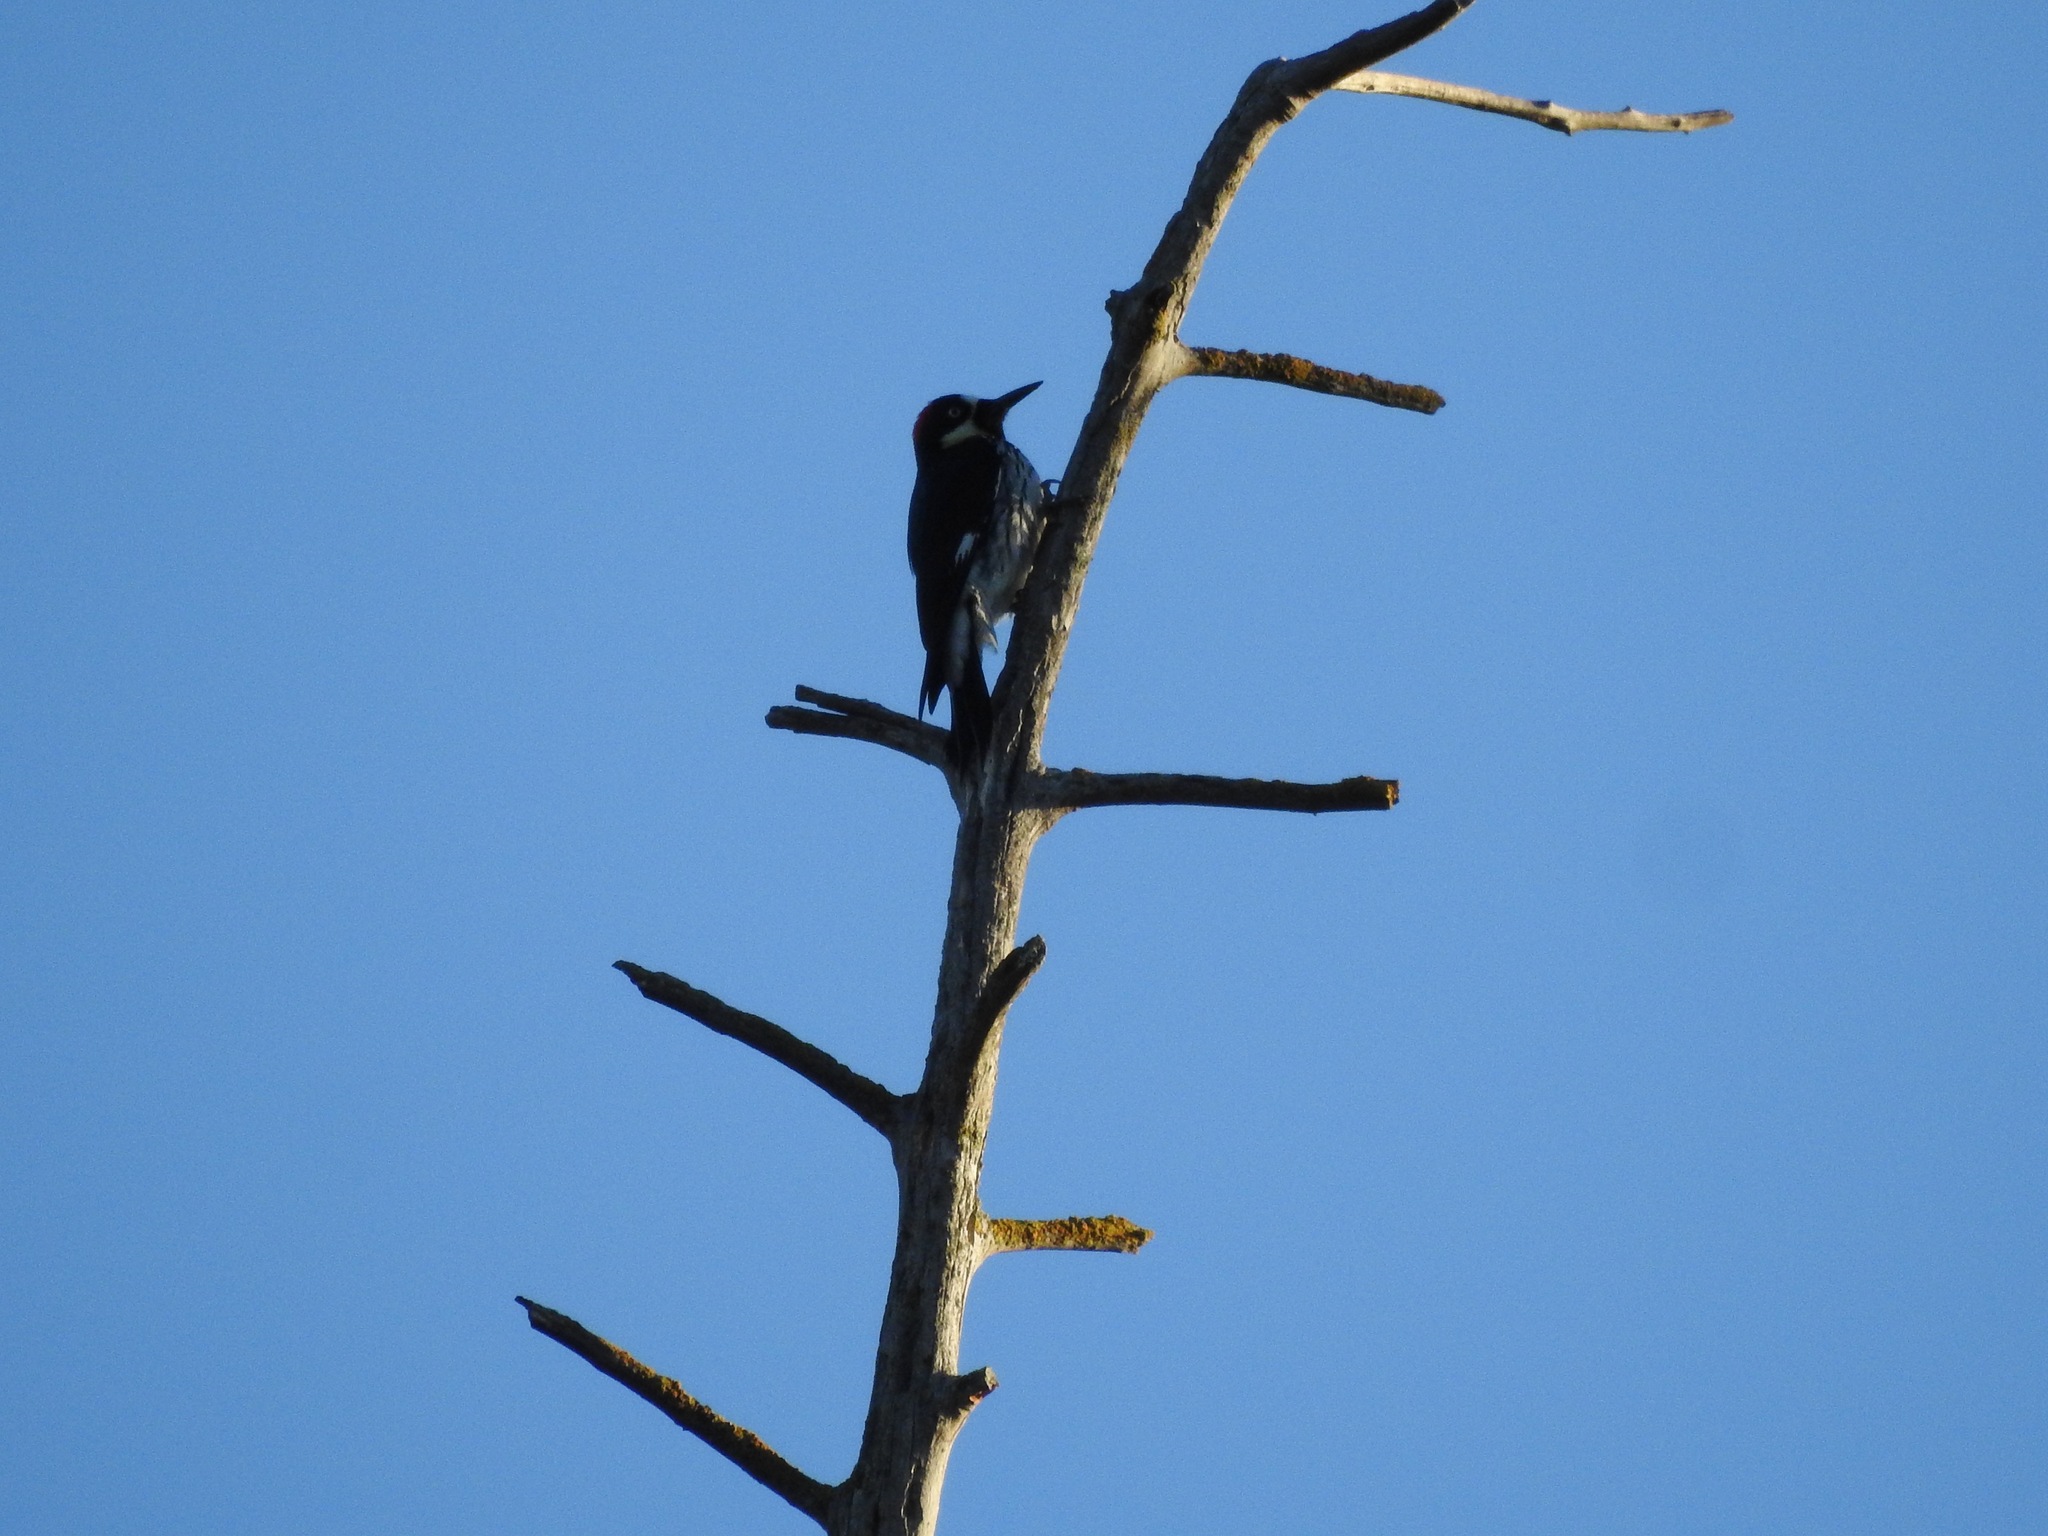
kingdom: Animalia
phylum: Chordata
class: Aves
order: Piciformes
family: Picidae
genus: Melanerpes
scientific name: Melanerpes formicivorus
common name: Acorn woodpecker
